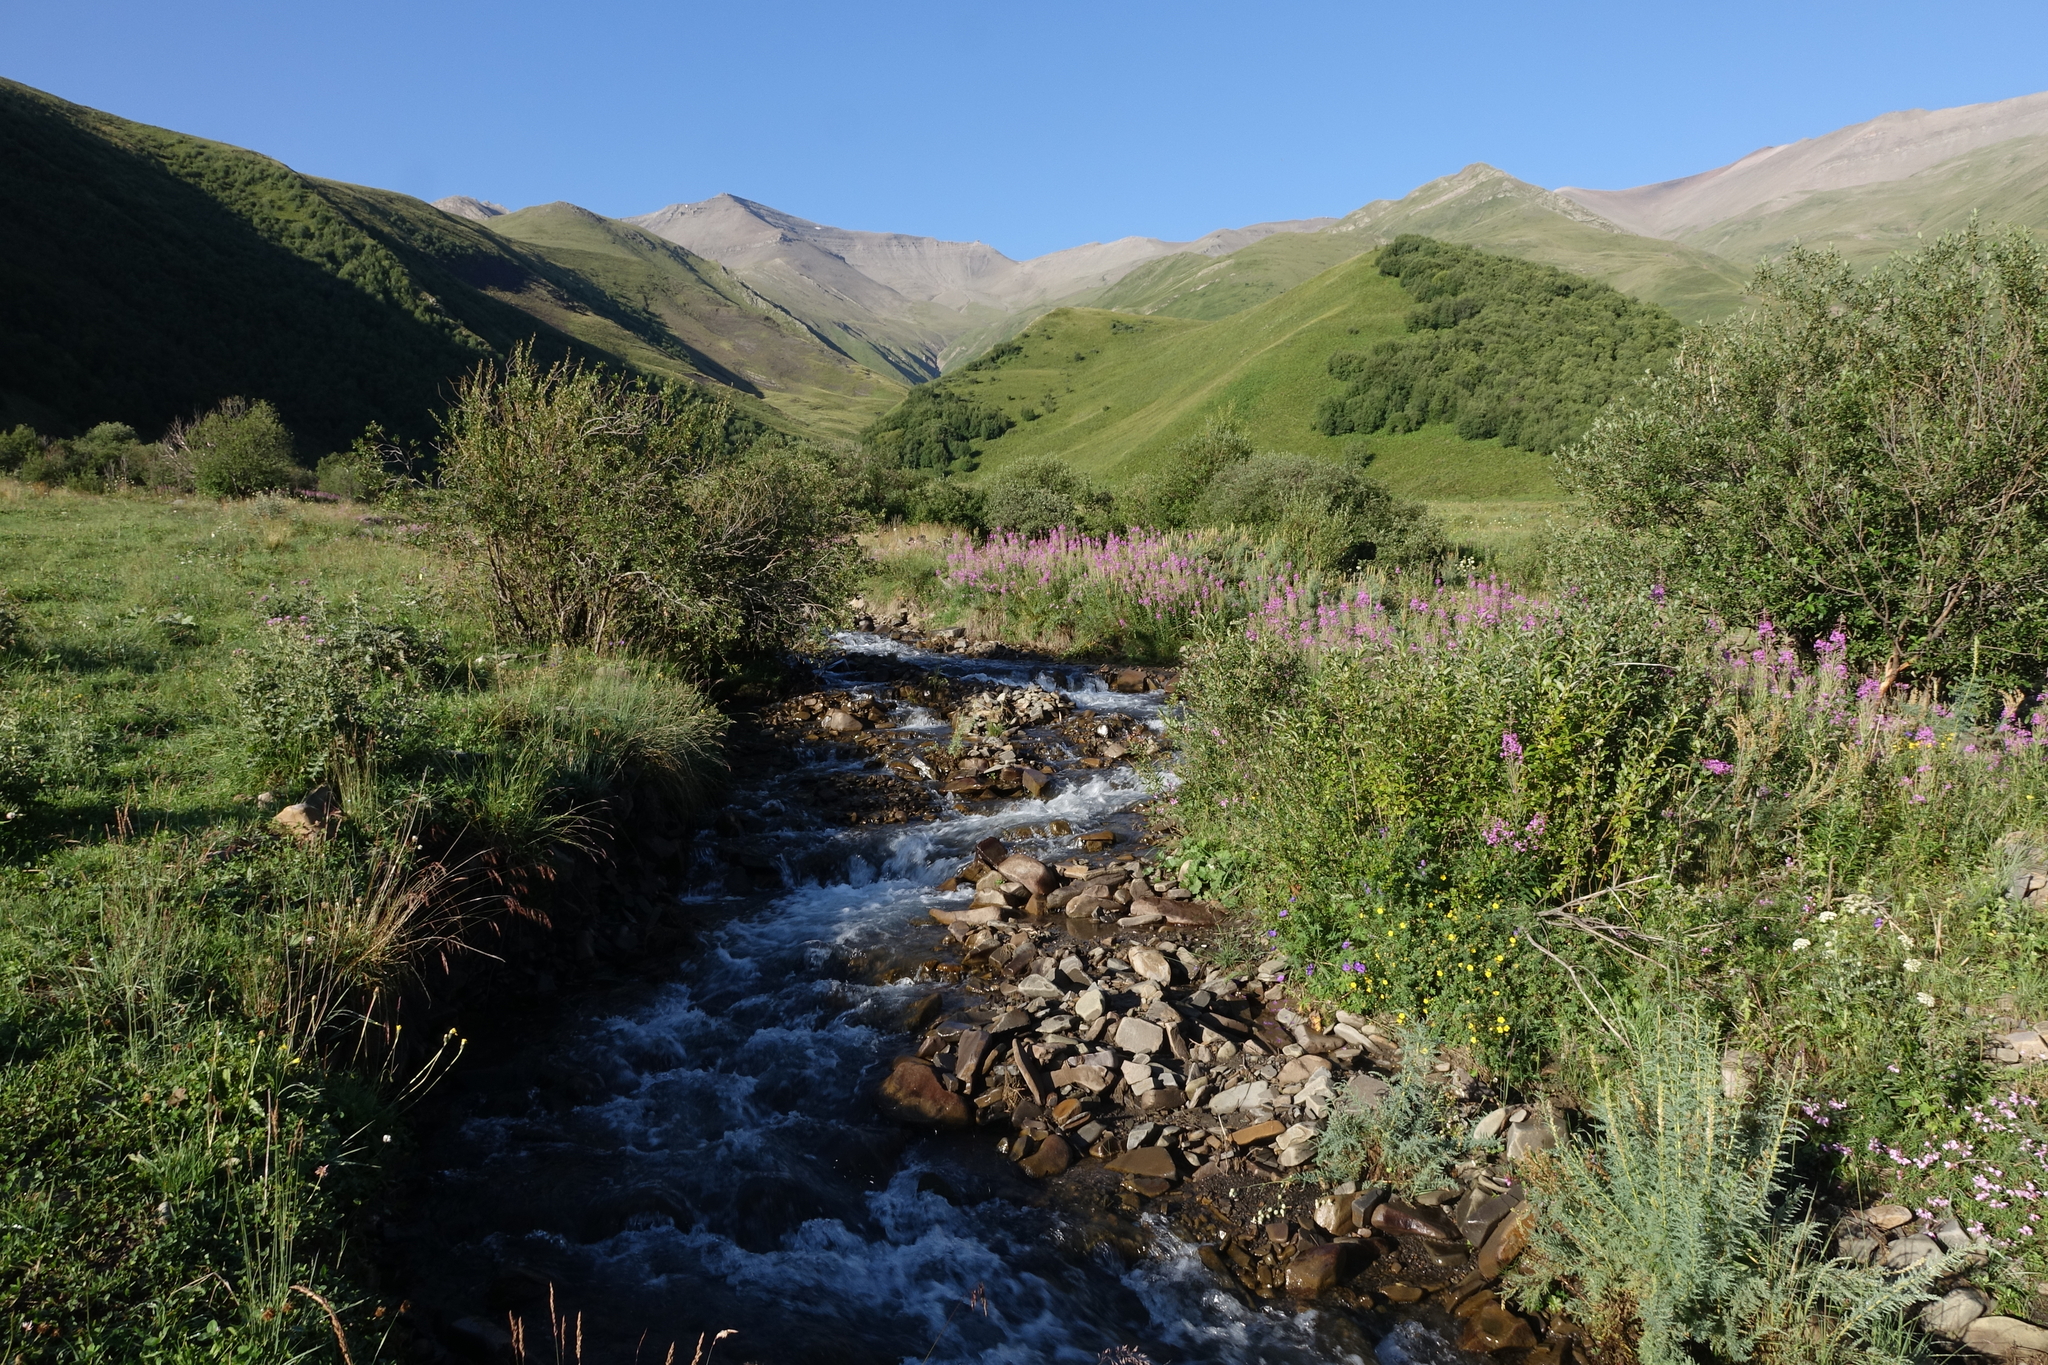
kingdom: Plantae
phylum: Tracheophyta
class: Magnoliopsida
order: Myrtales
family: Onagraceae
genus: Chamaenerion
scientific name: Chamaenerion angustifolium
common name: Fireweed
